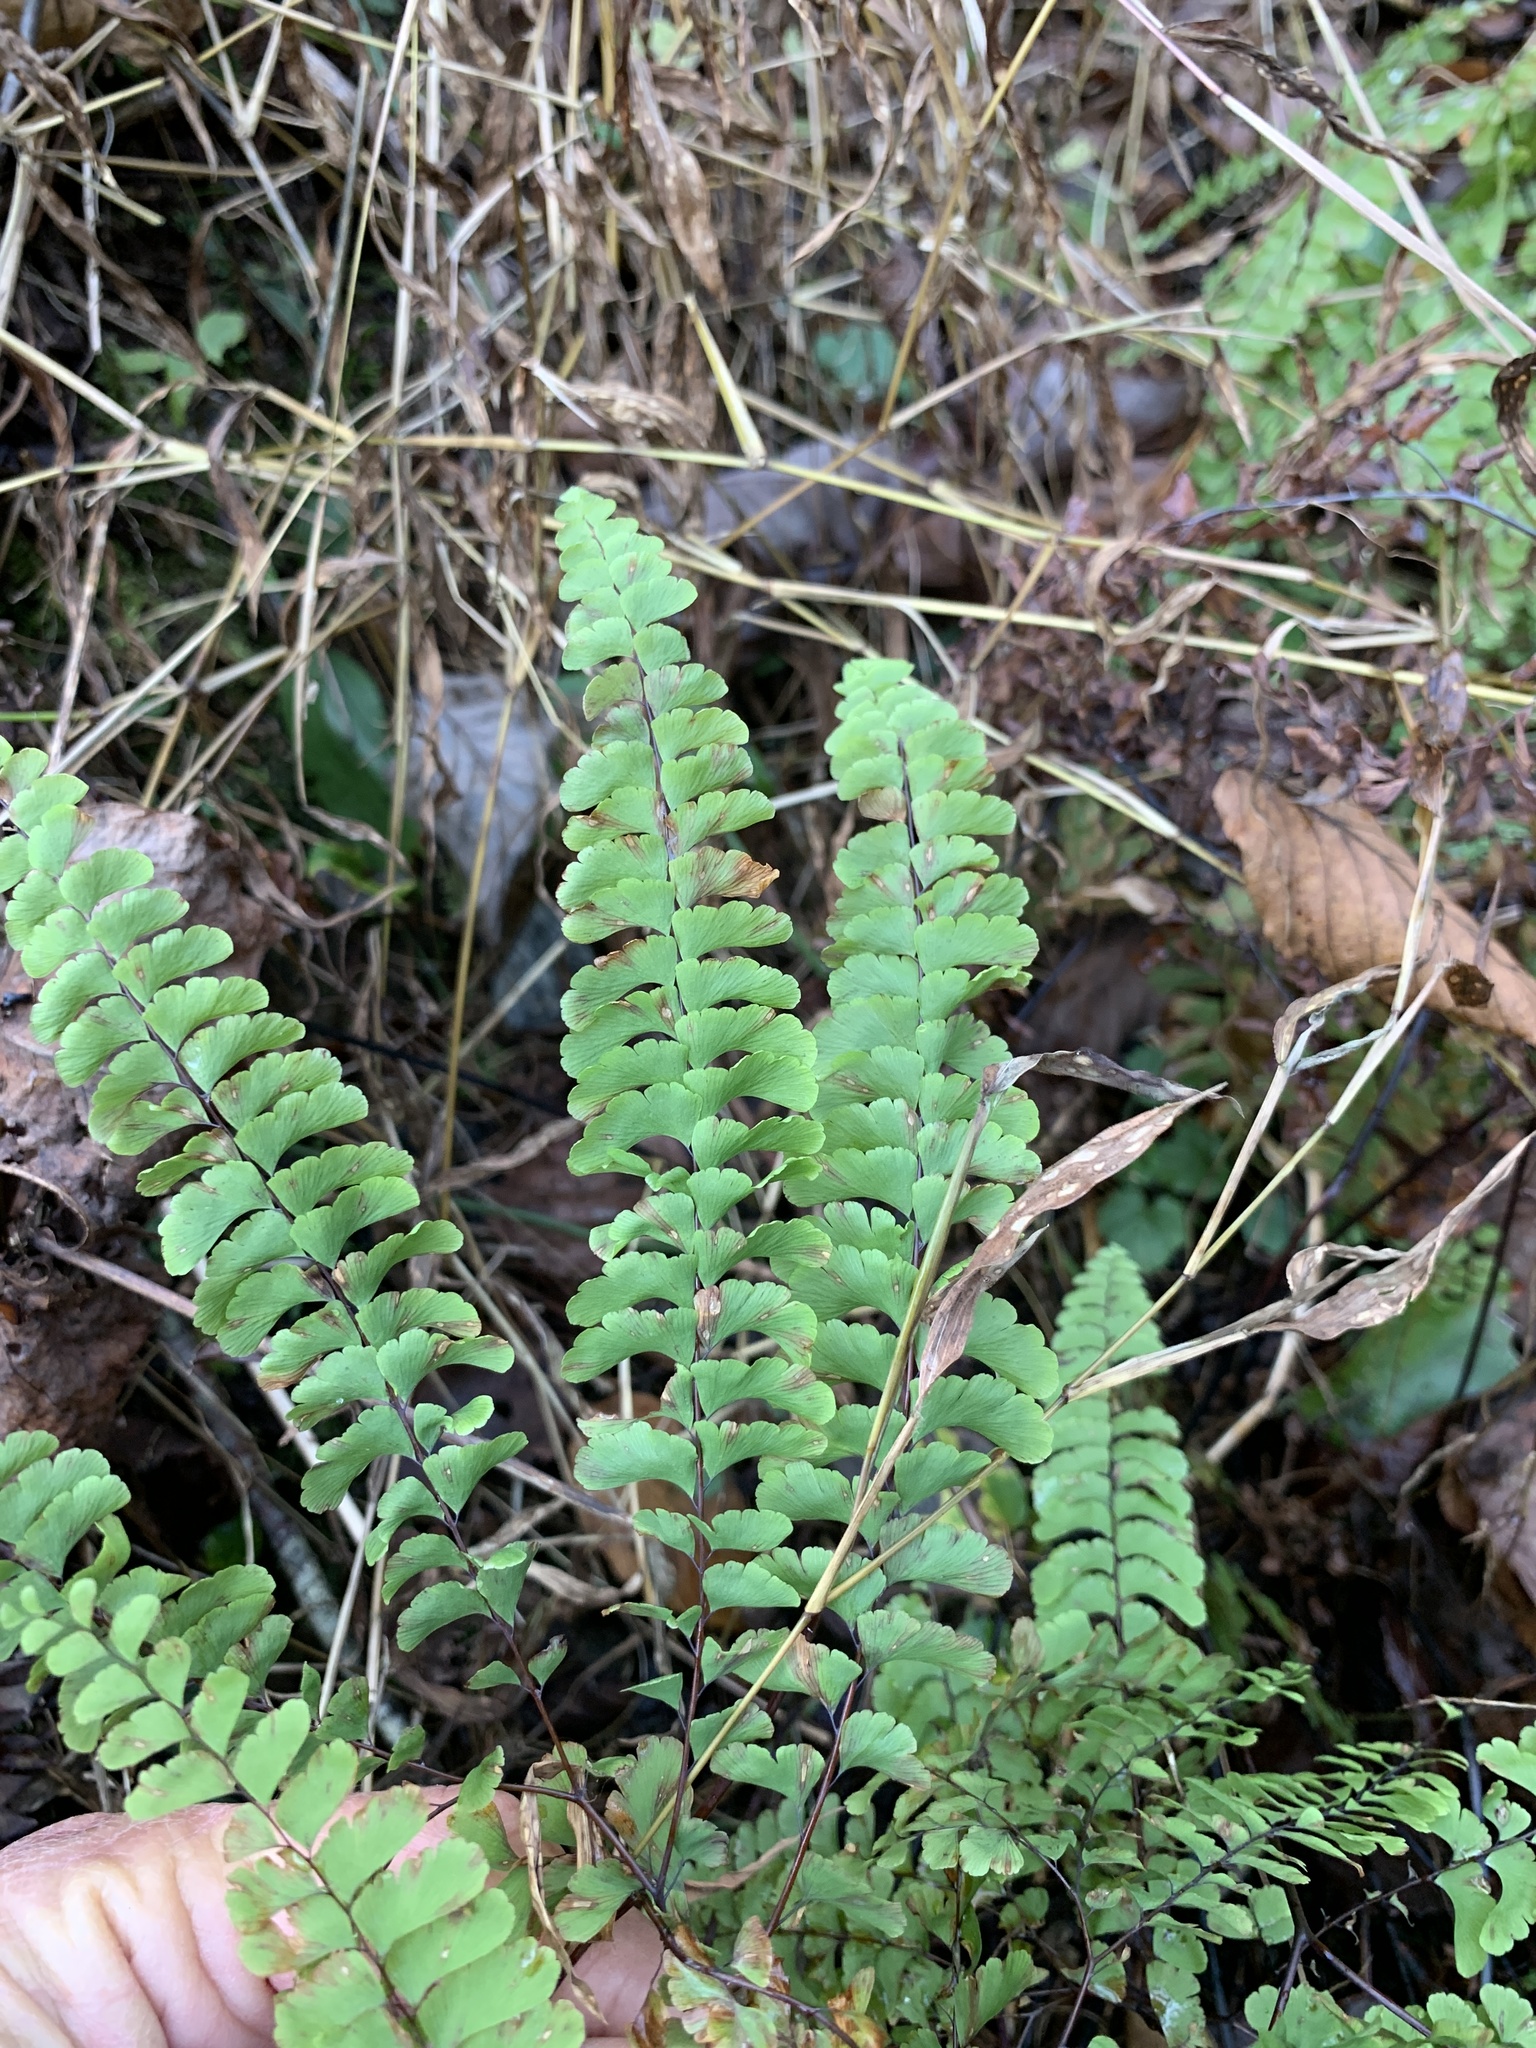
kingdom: Plantae
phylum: Tracheophyta
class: Polypodiopsida
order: Polypodiales
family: Pteridaceae
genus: Adiantum
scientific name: Adiantum pedatum
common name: Five-finger fern
